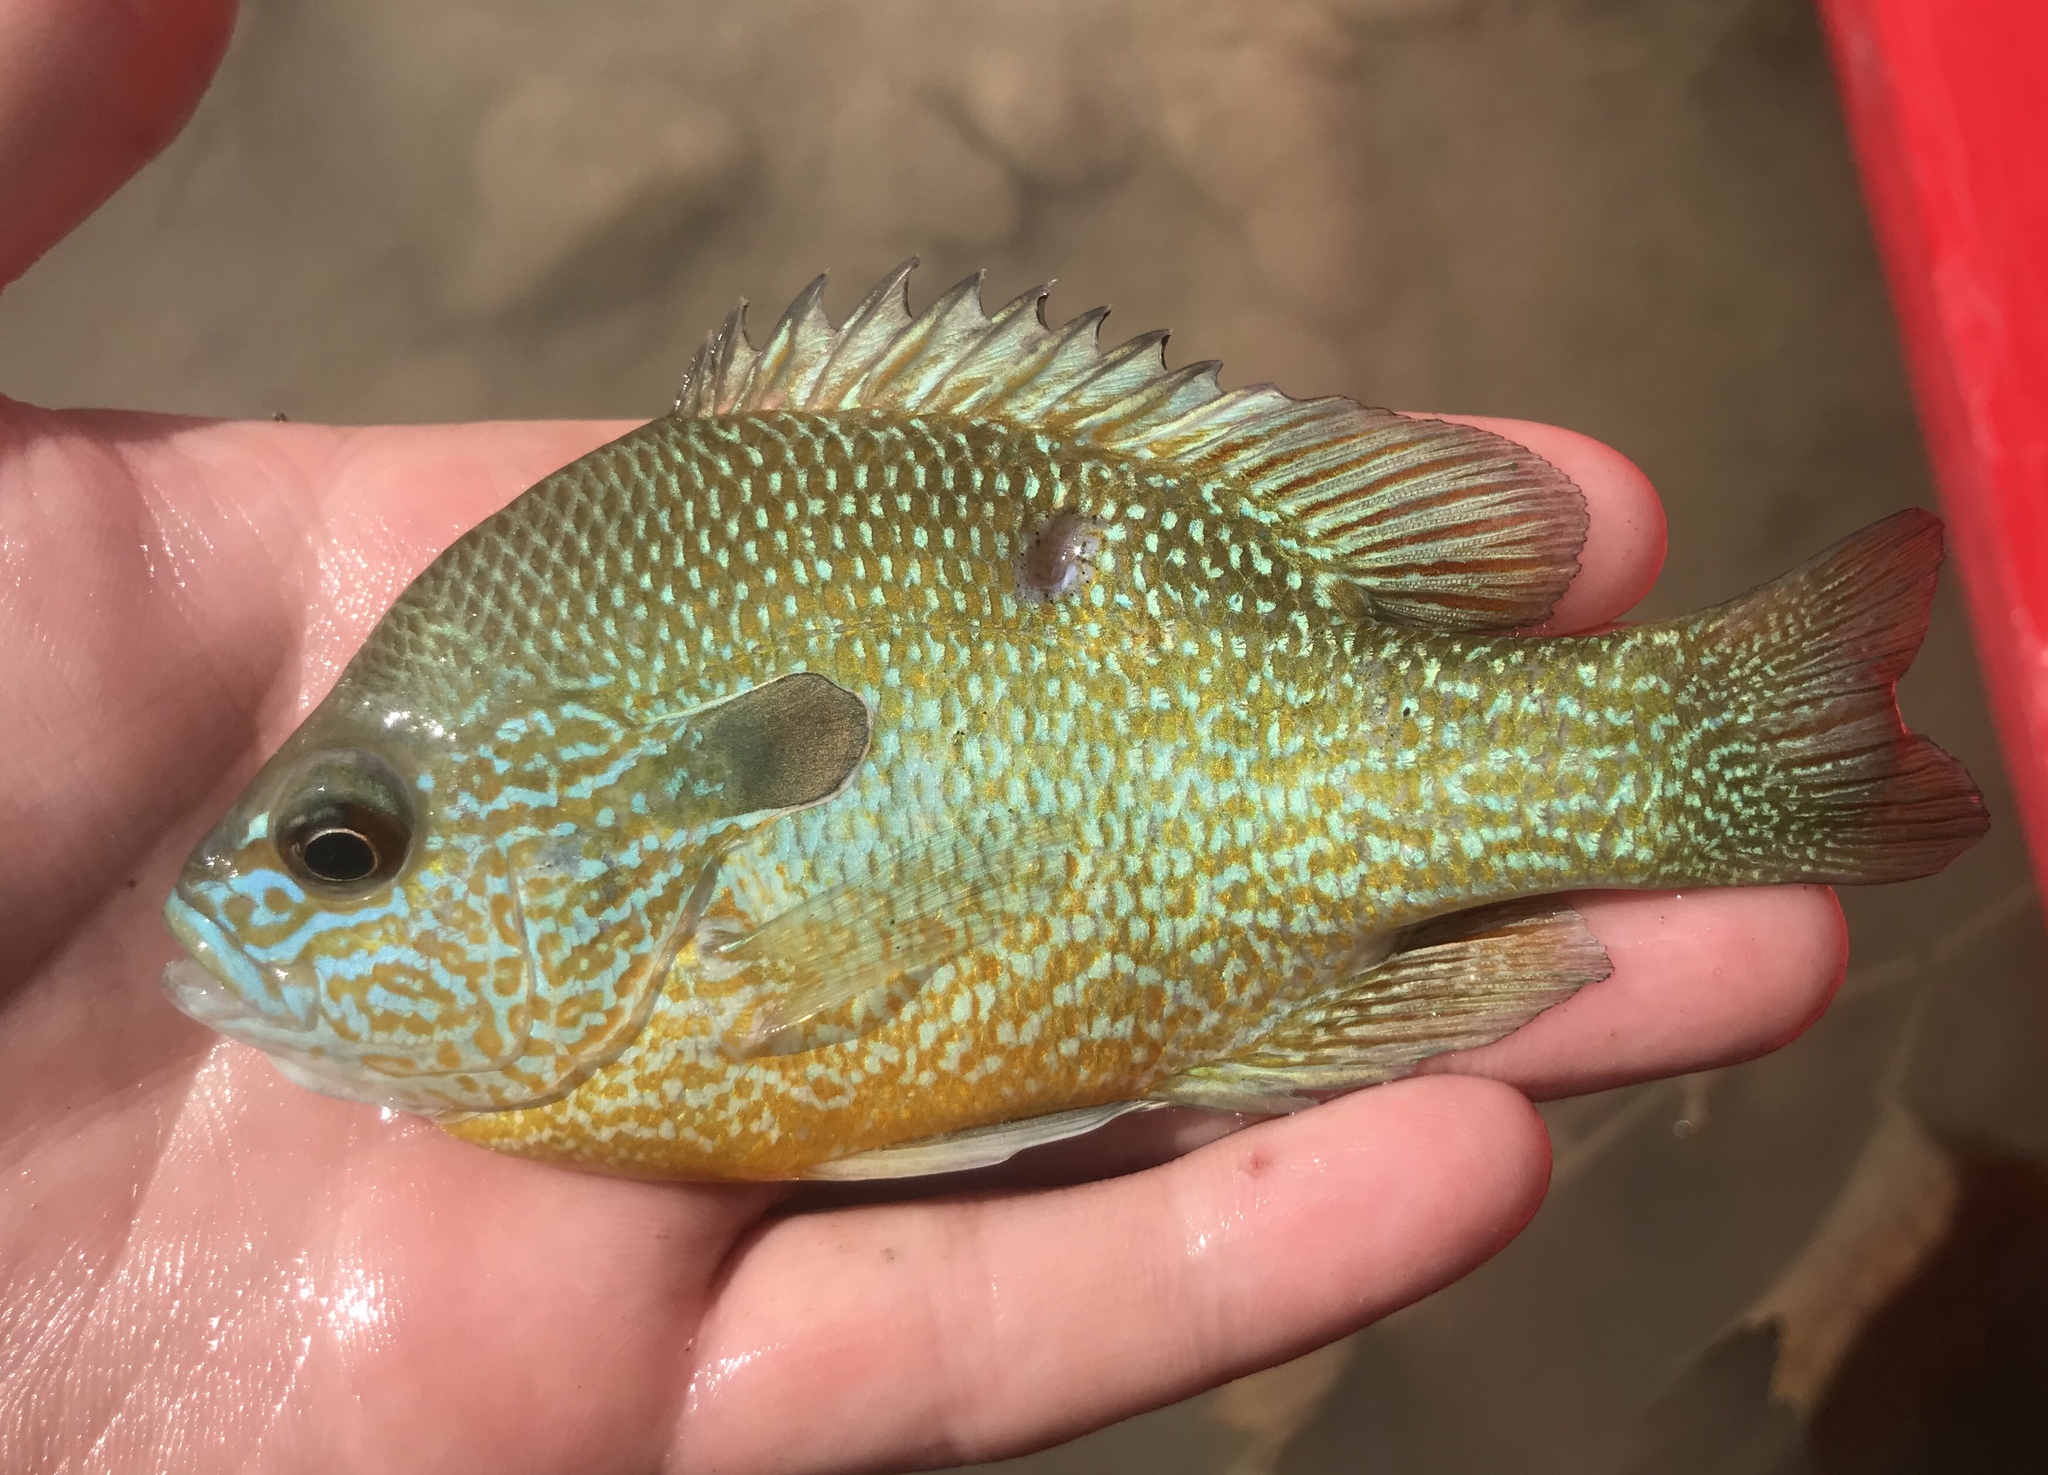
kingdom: Animalia
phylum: Chordata
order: Perciformes
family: Centrarchidae
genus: Lepomis
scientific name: Lepomis megalotis
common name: Longear sunfish
